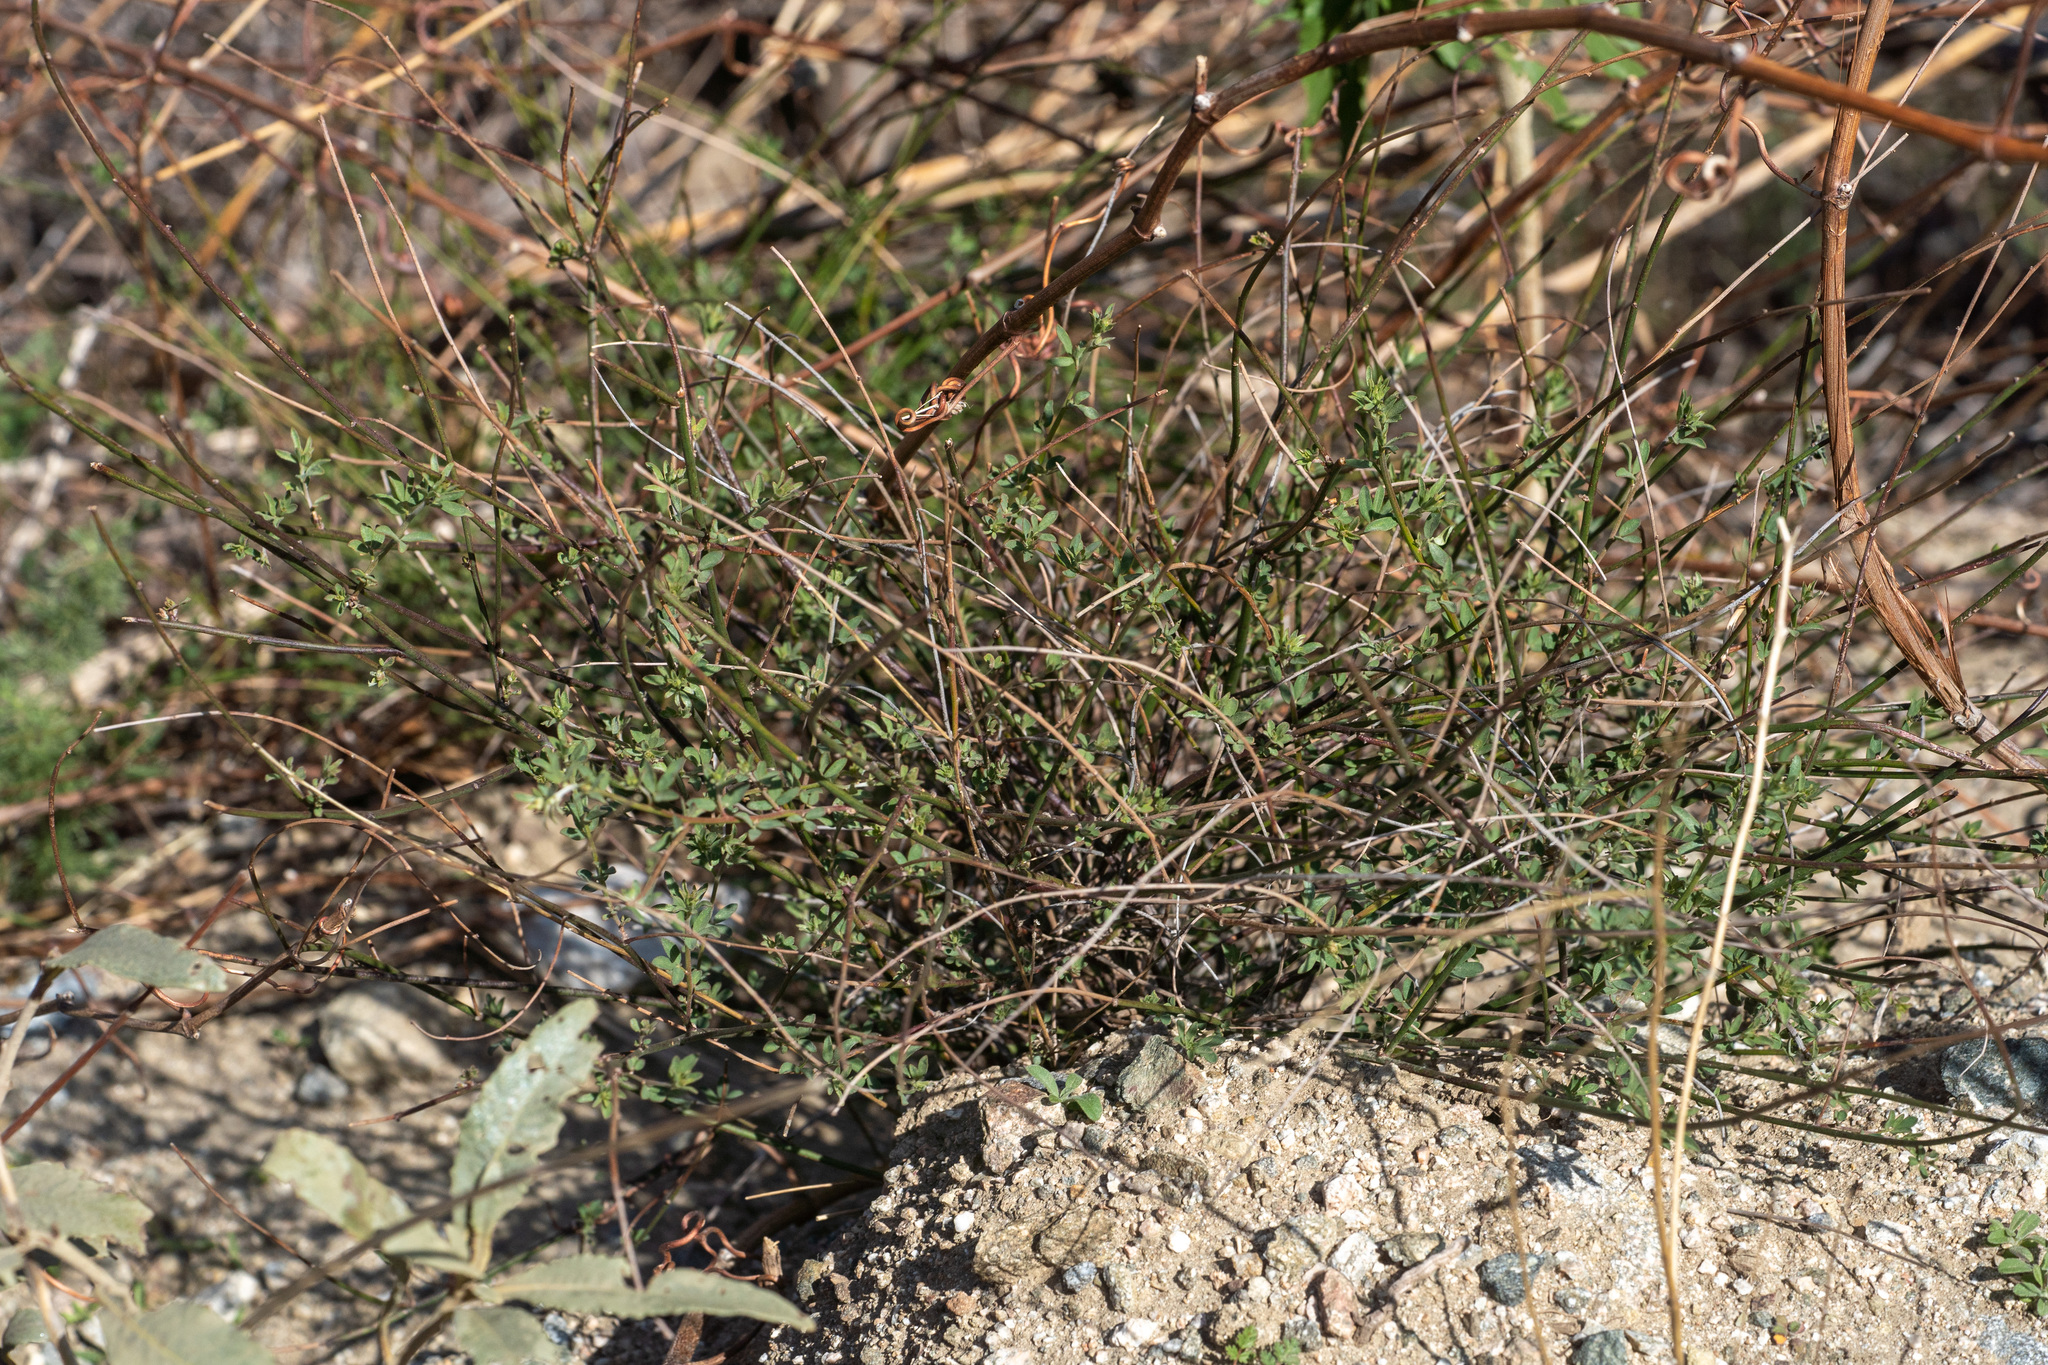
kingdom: Plantae
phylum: Tracheophyta
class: Magnoliopsida
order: Fabales
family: Fabaceae
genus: Acmispon
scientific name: Acmispon glaber
